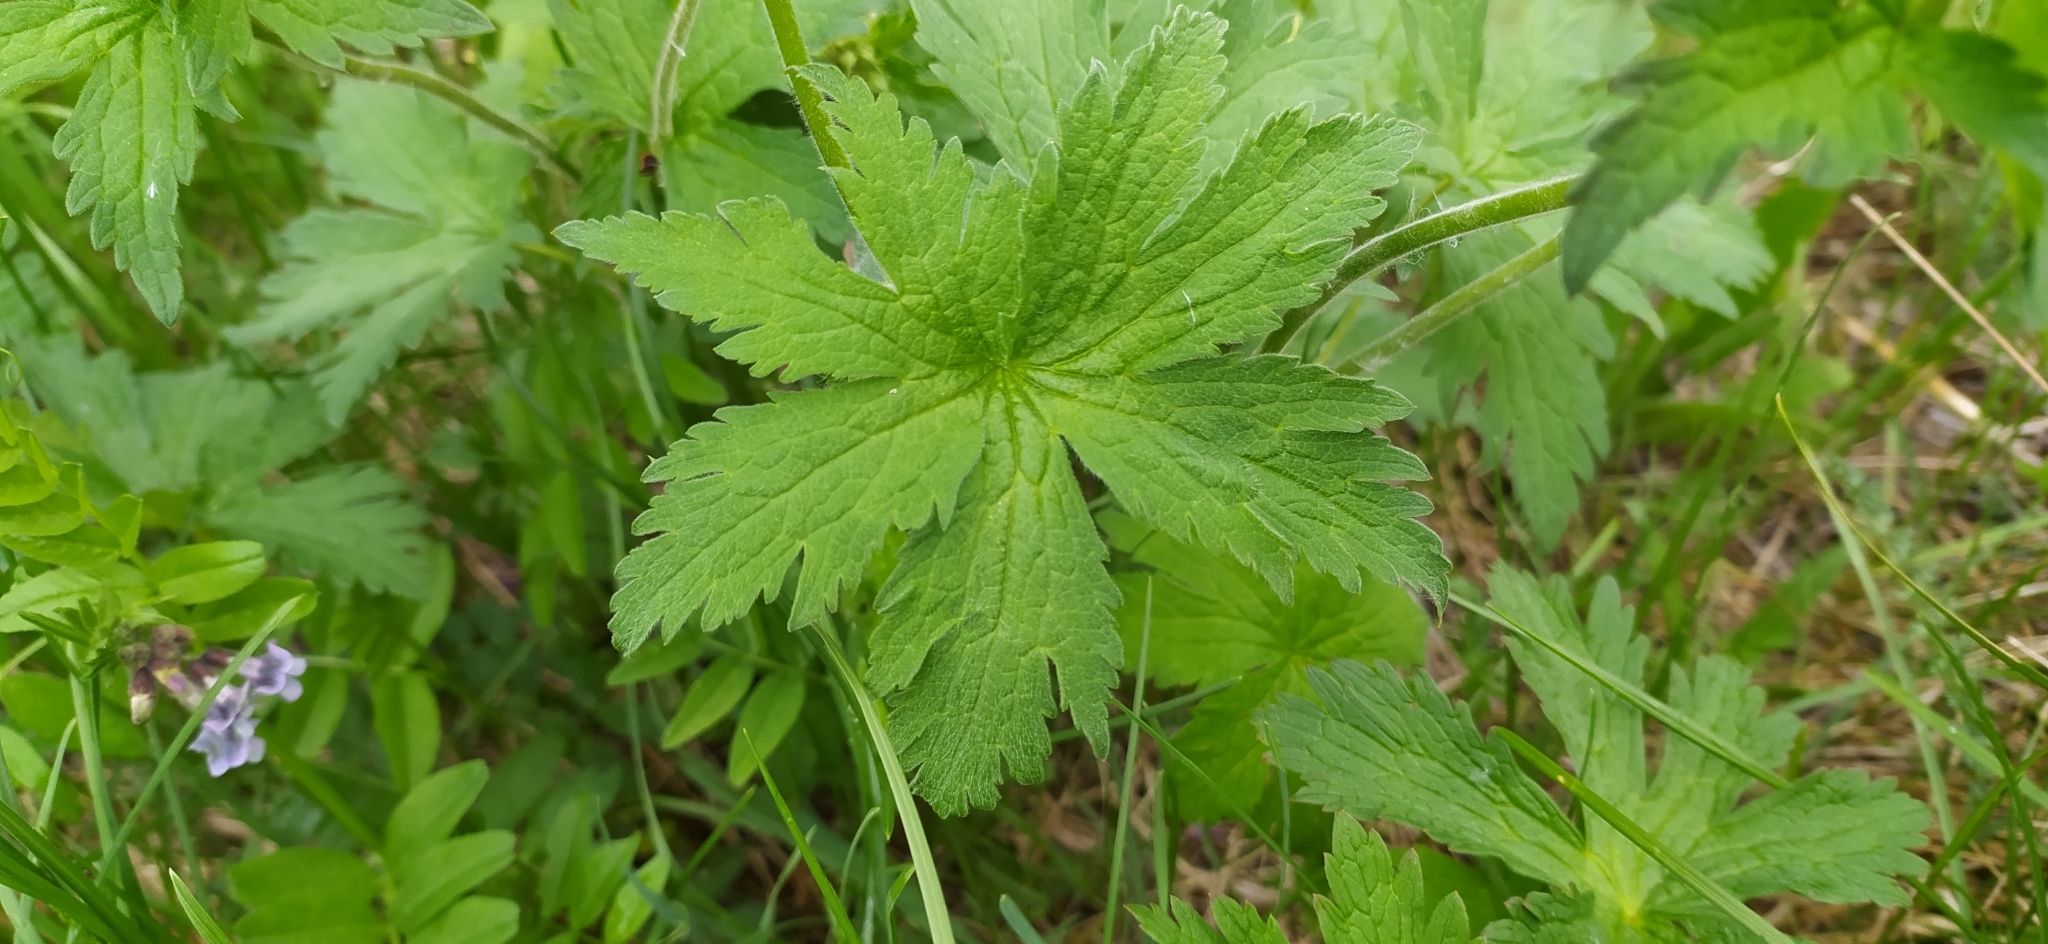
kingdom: Plantae
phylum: Tracheophyta
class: Magnoliopsida
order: Geraniales
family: Geraniaceae
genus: Geranium
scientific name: Geranium sylvaticum
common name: Wood crane's-bill
